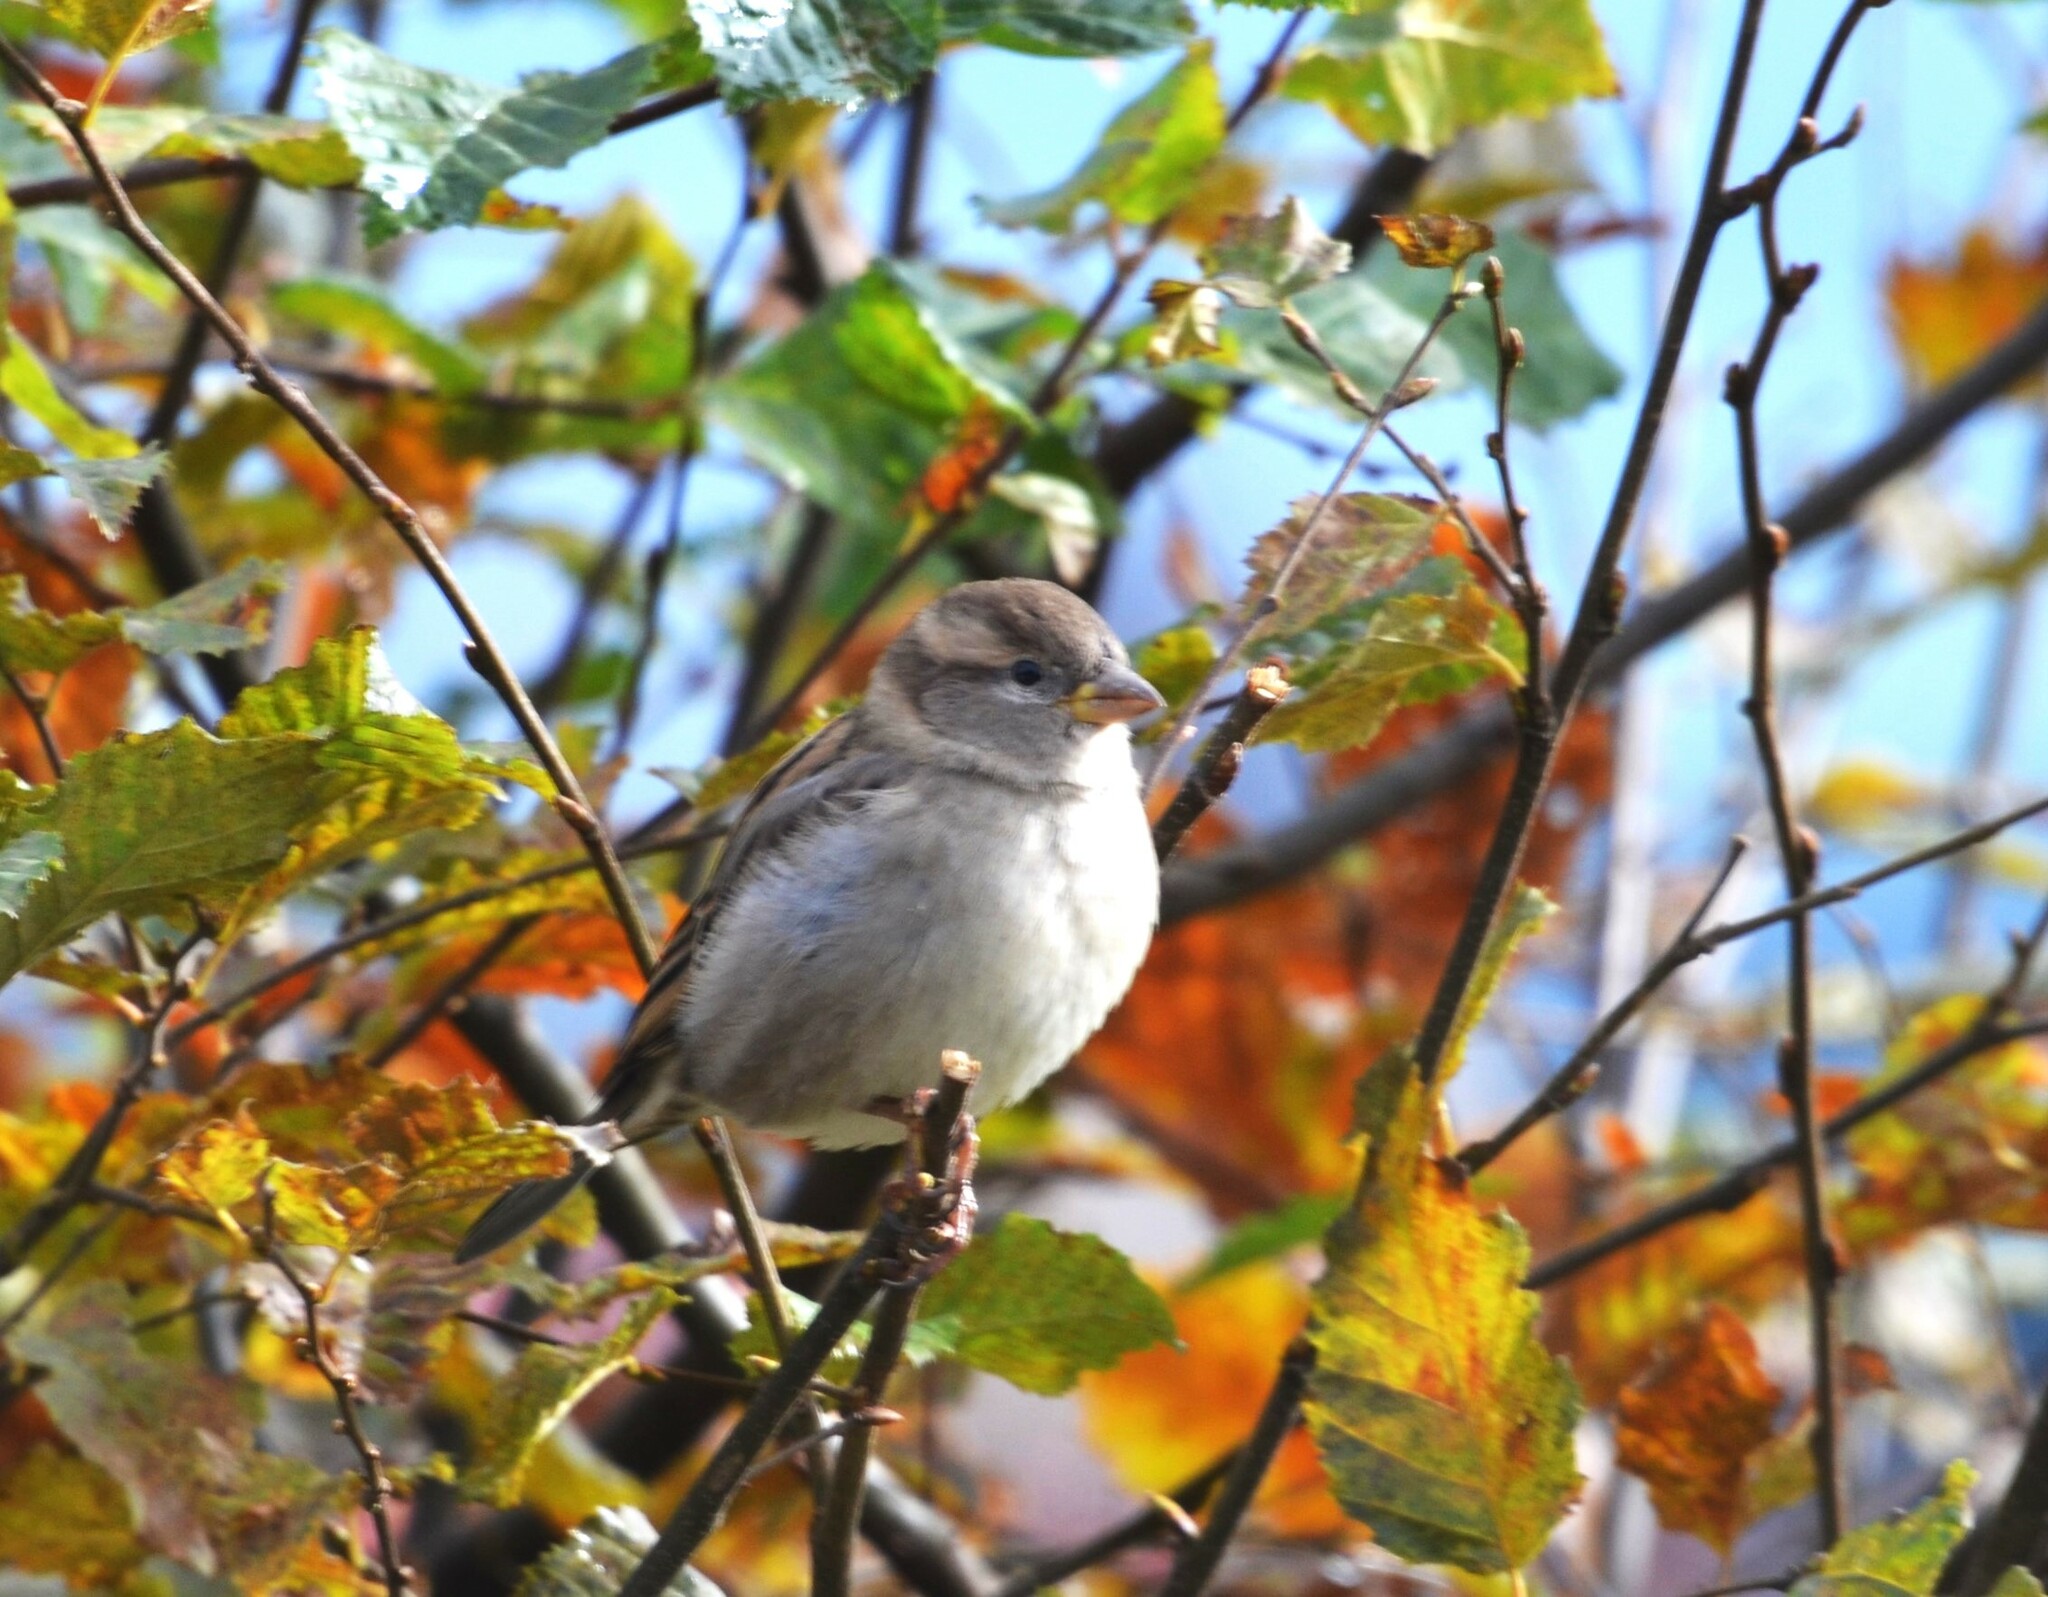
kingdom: Animalia
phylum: Chordata
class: Aves
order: Passeriformes
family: Passeridae
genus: Passer
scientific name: Passer domesticus
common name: House sparrow
